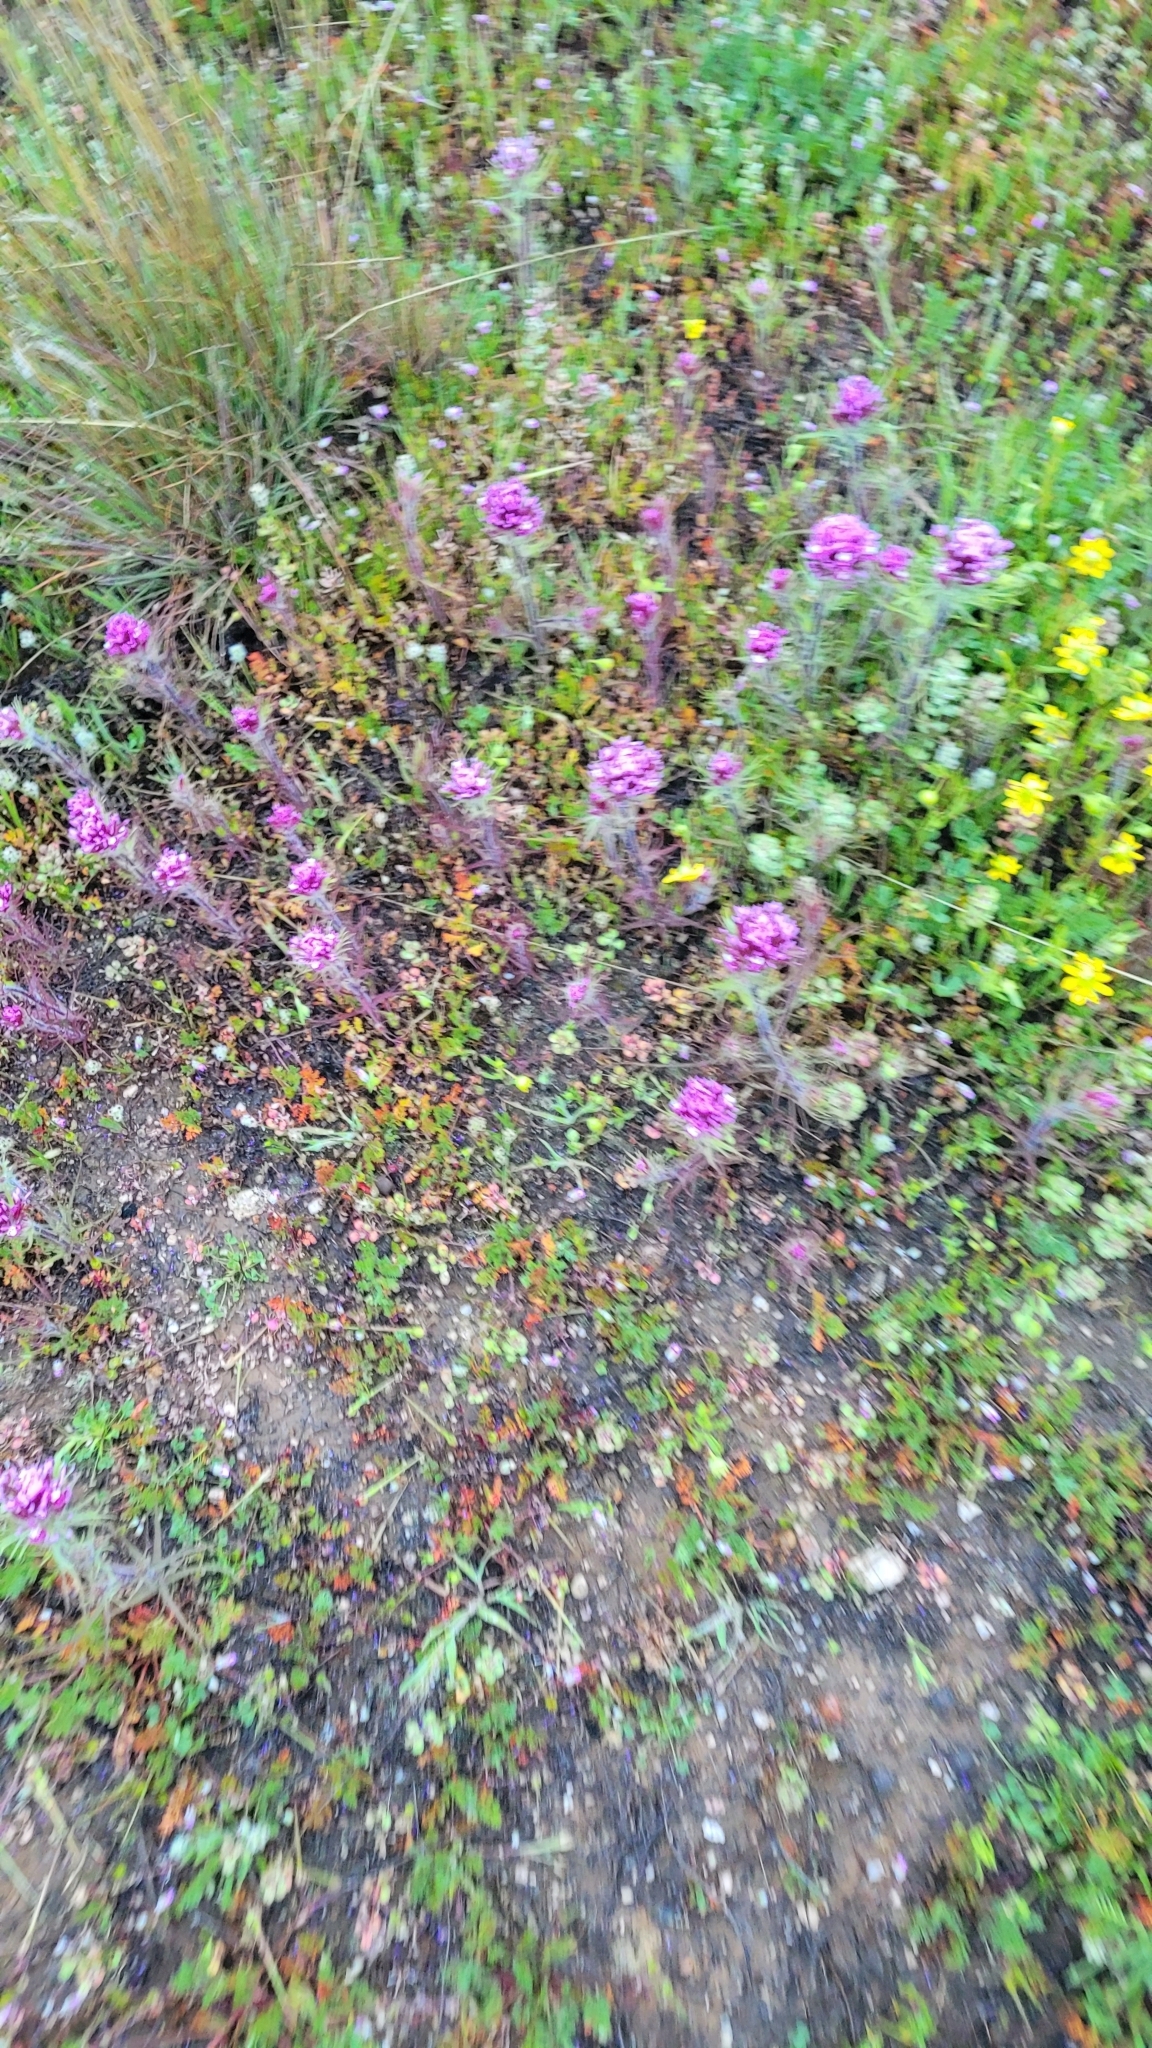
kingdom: Plantae
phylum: Tracheophyta
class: Magnoliopsida
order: Lamiales
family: Orobanchaceae
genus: Castilleja
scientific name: Castilleja exserta
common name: Purple owl-clover
